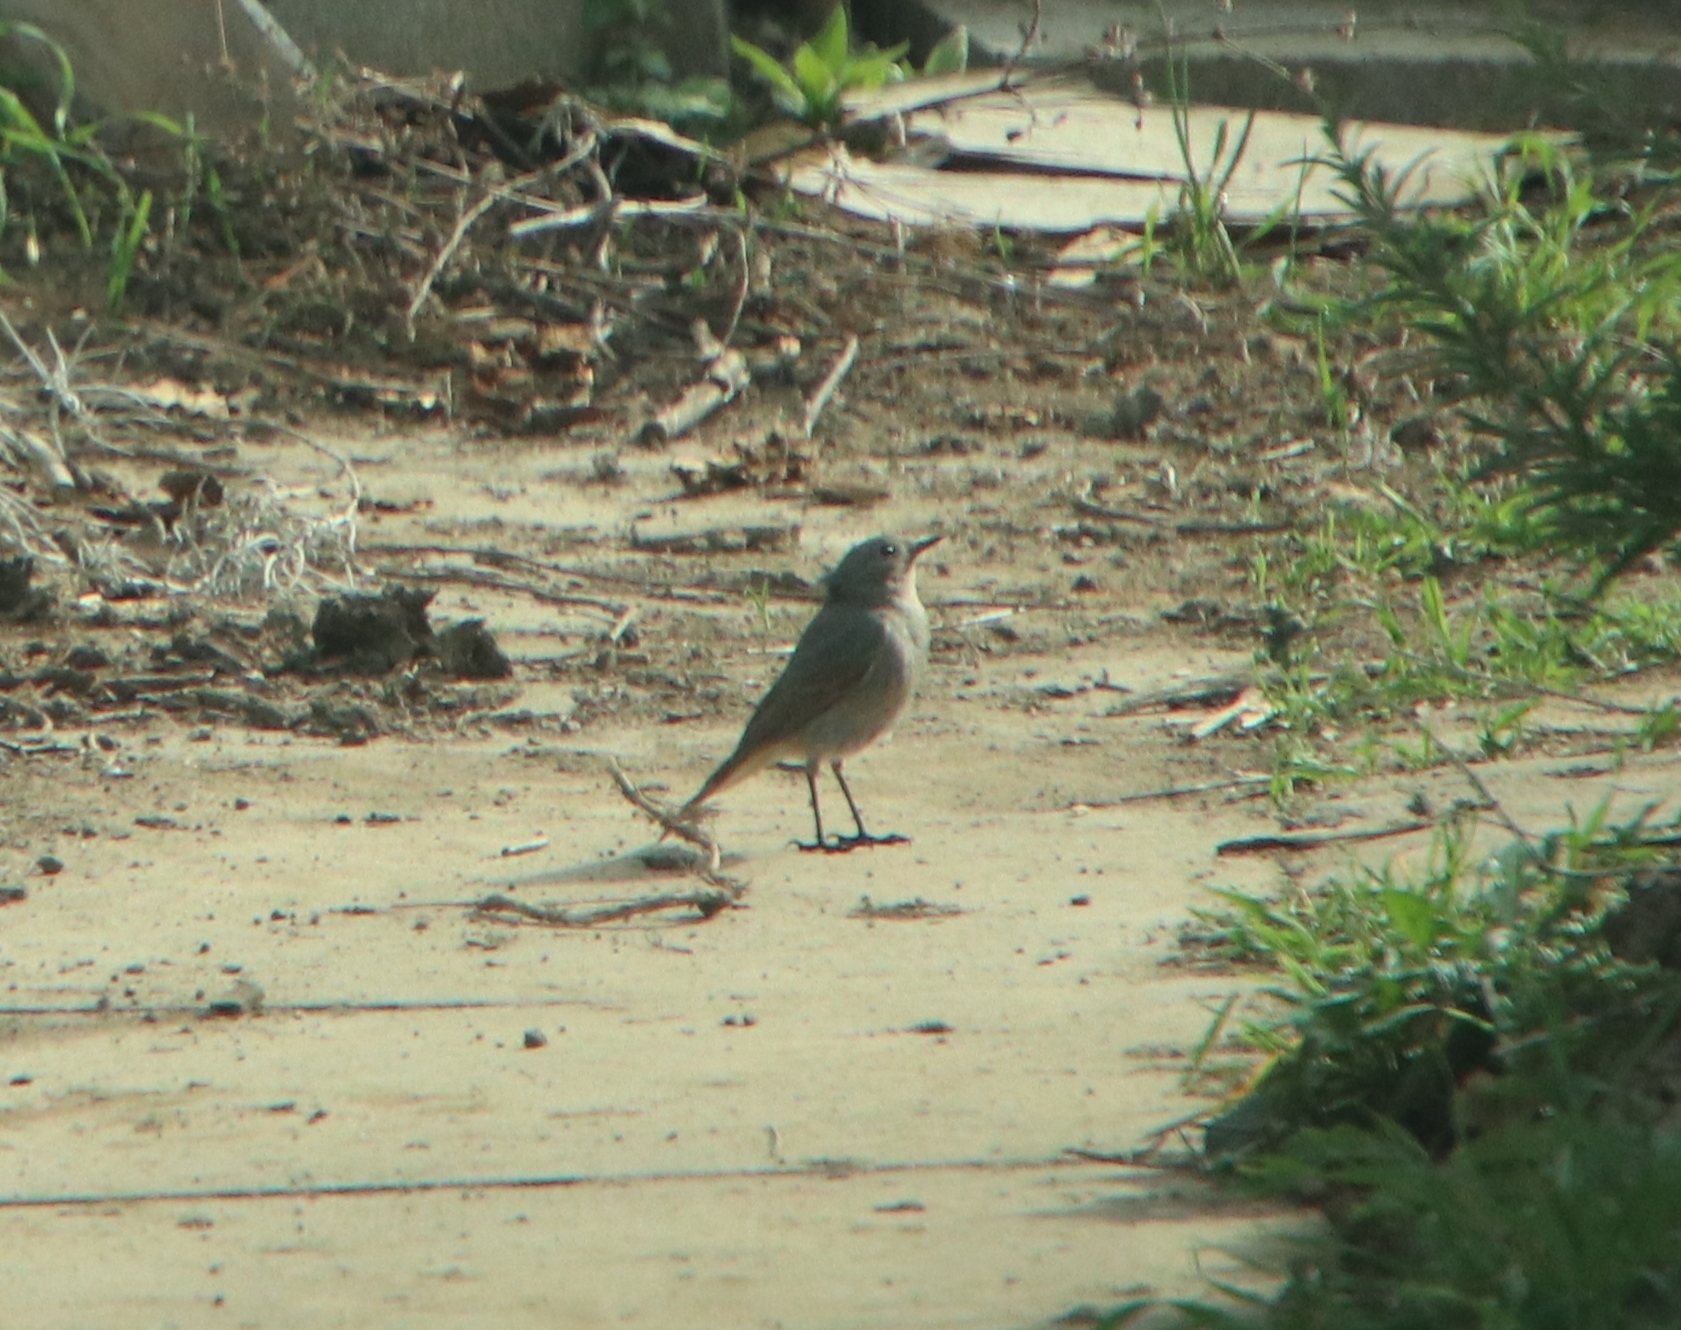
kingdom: Animalia
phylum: Chordata
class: Aves
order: Passeriformes
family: Muscicapidae
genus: Phoenicurus
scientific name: Phoenicurus ochruros
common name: Black redstart
